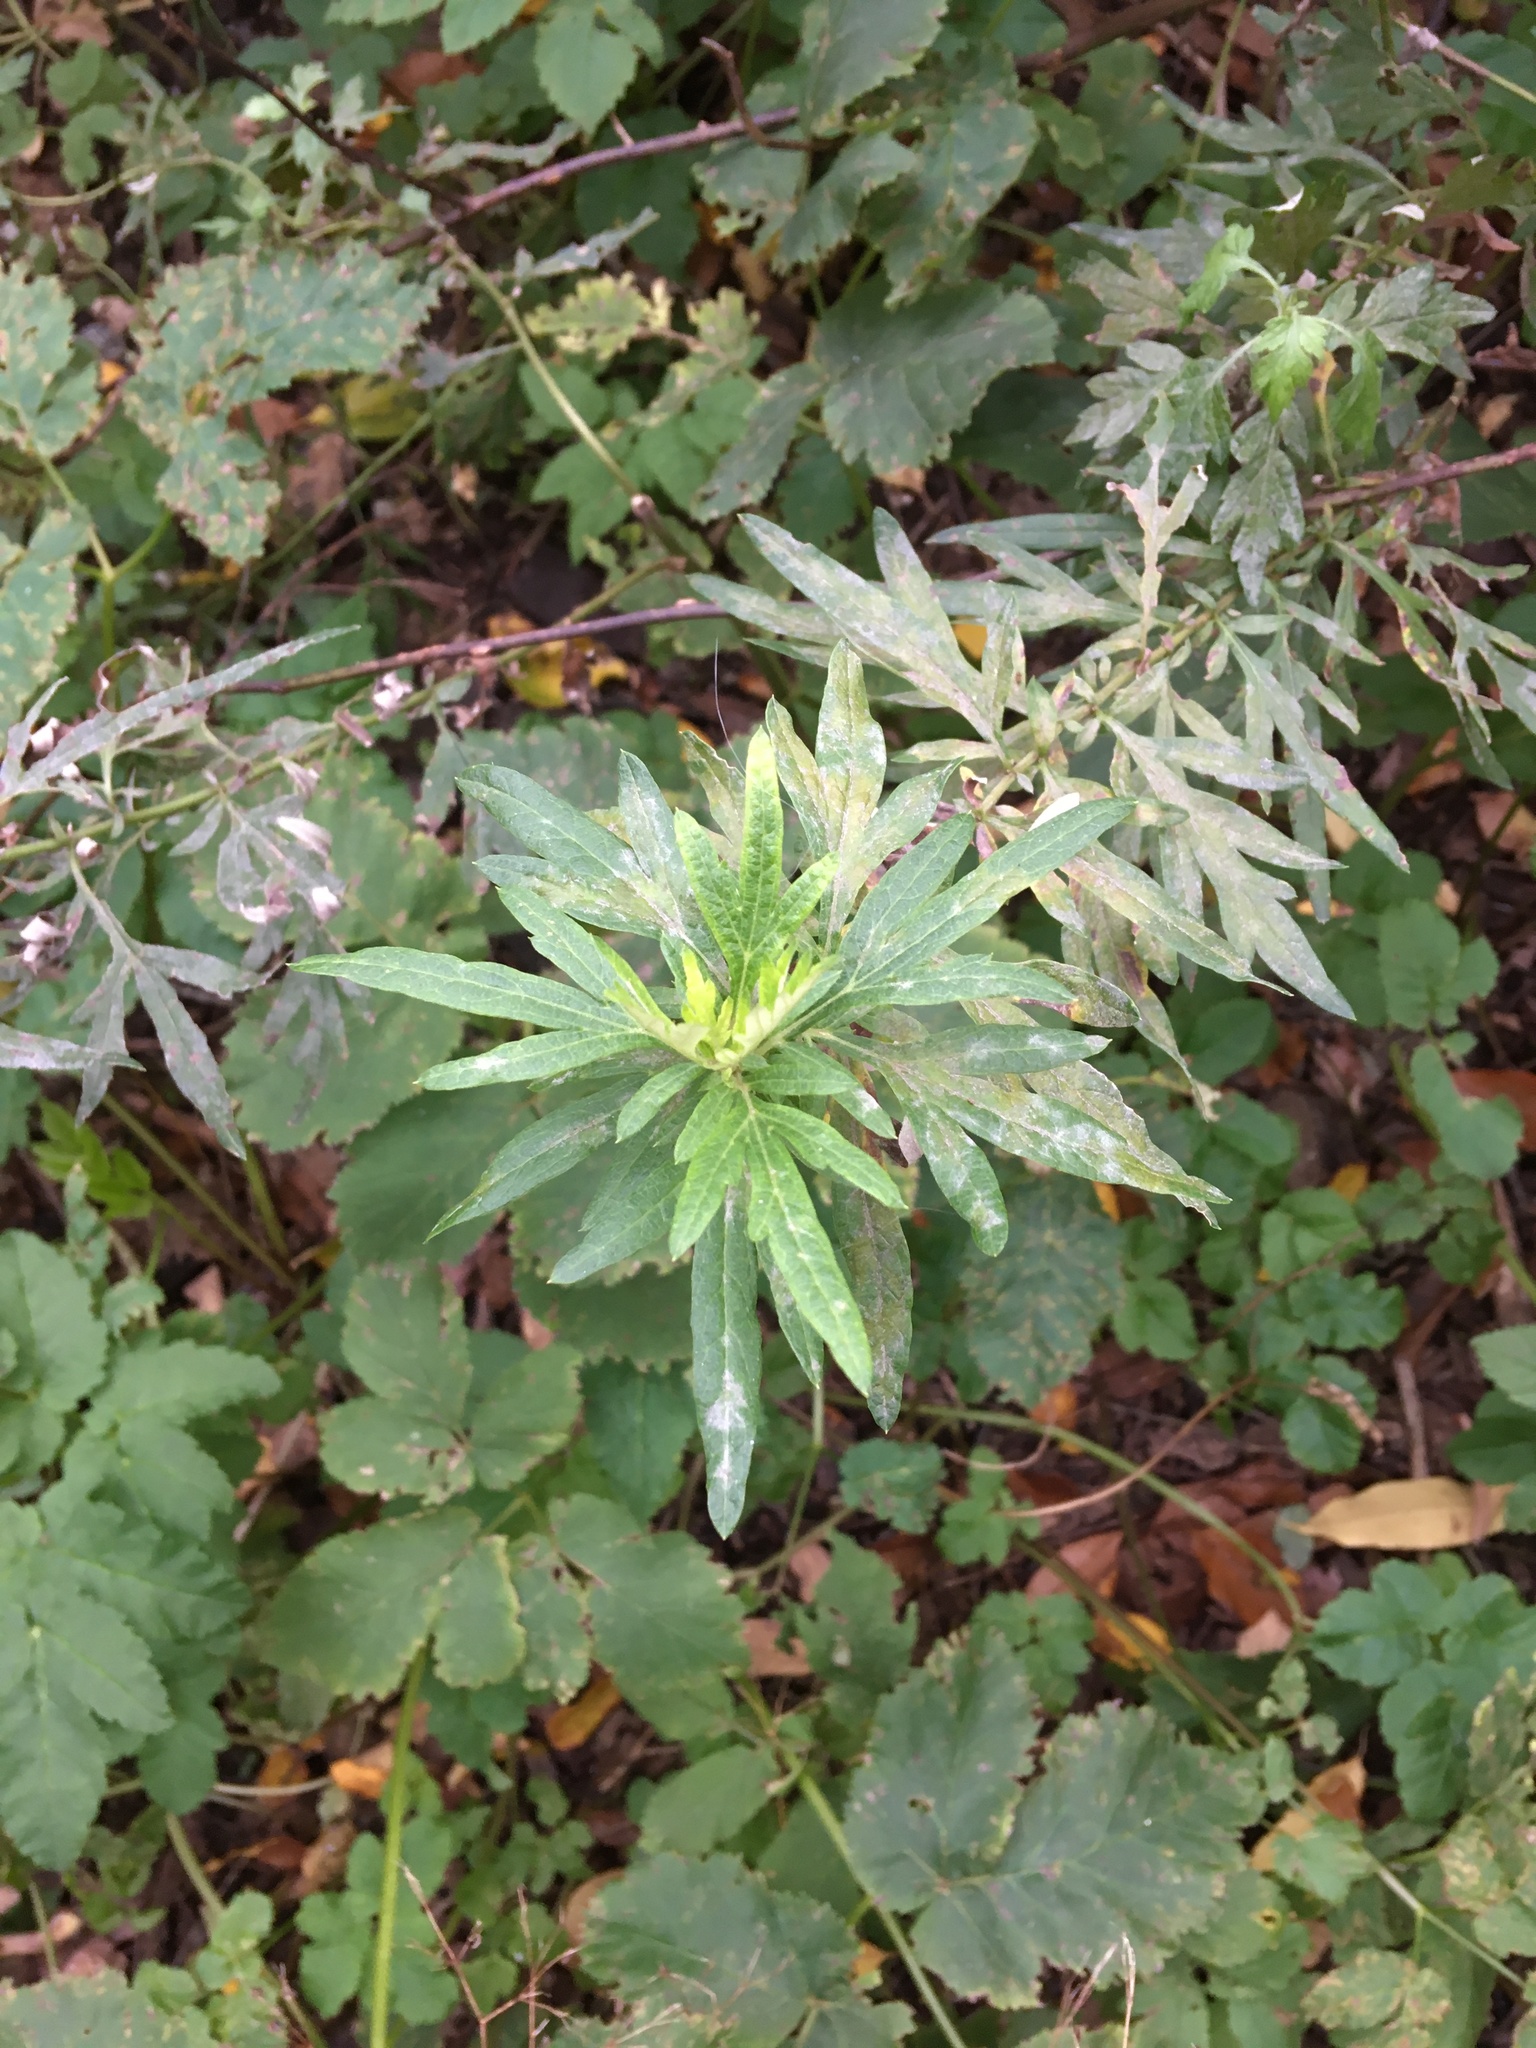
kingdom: Plantae
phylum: Tracheophyta
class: Magnoliopsida
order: Asterales
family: Asteraceae
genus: Artemisia
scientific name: Artemisia vulgaris
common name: Mugwort
